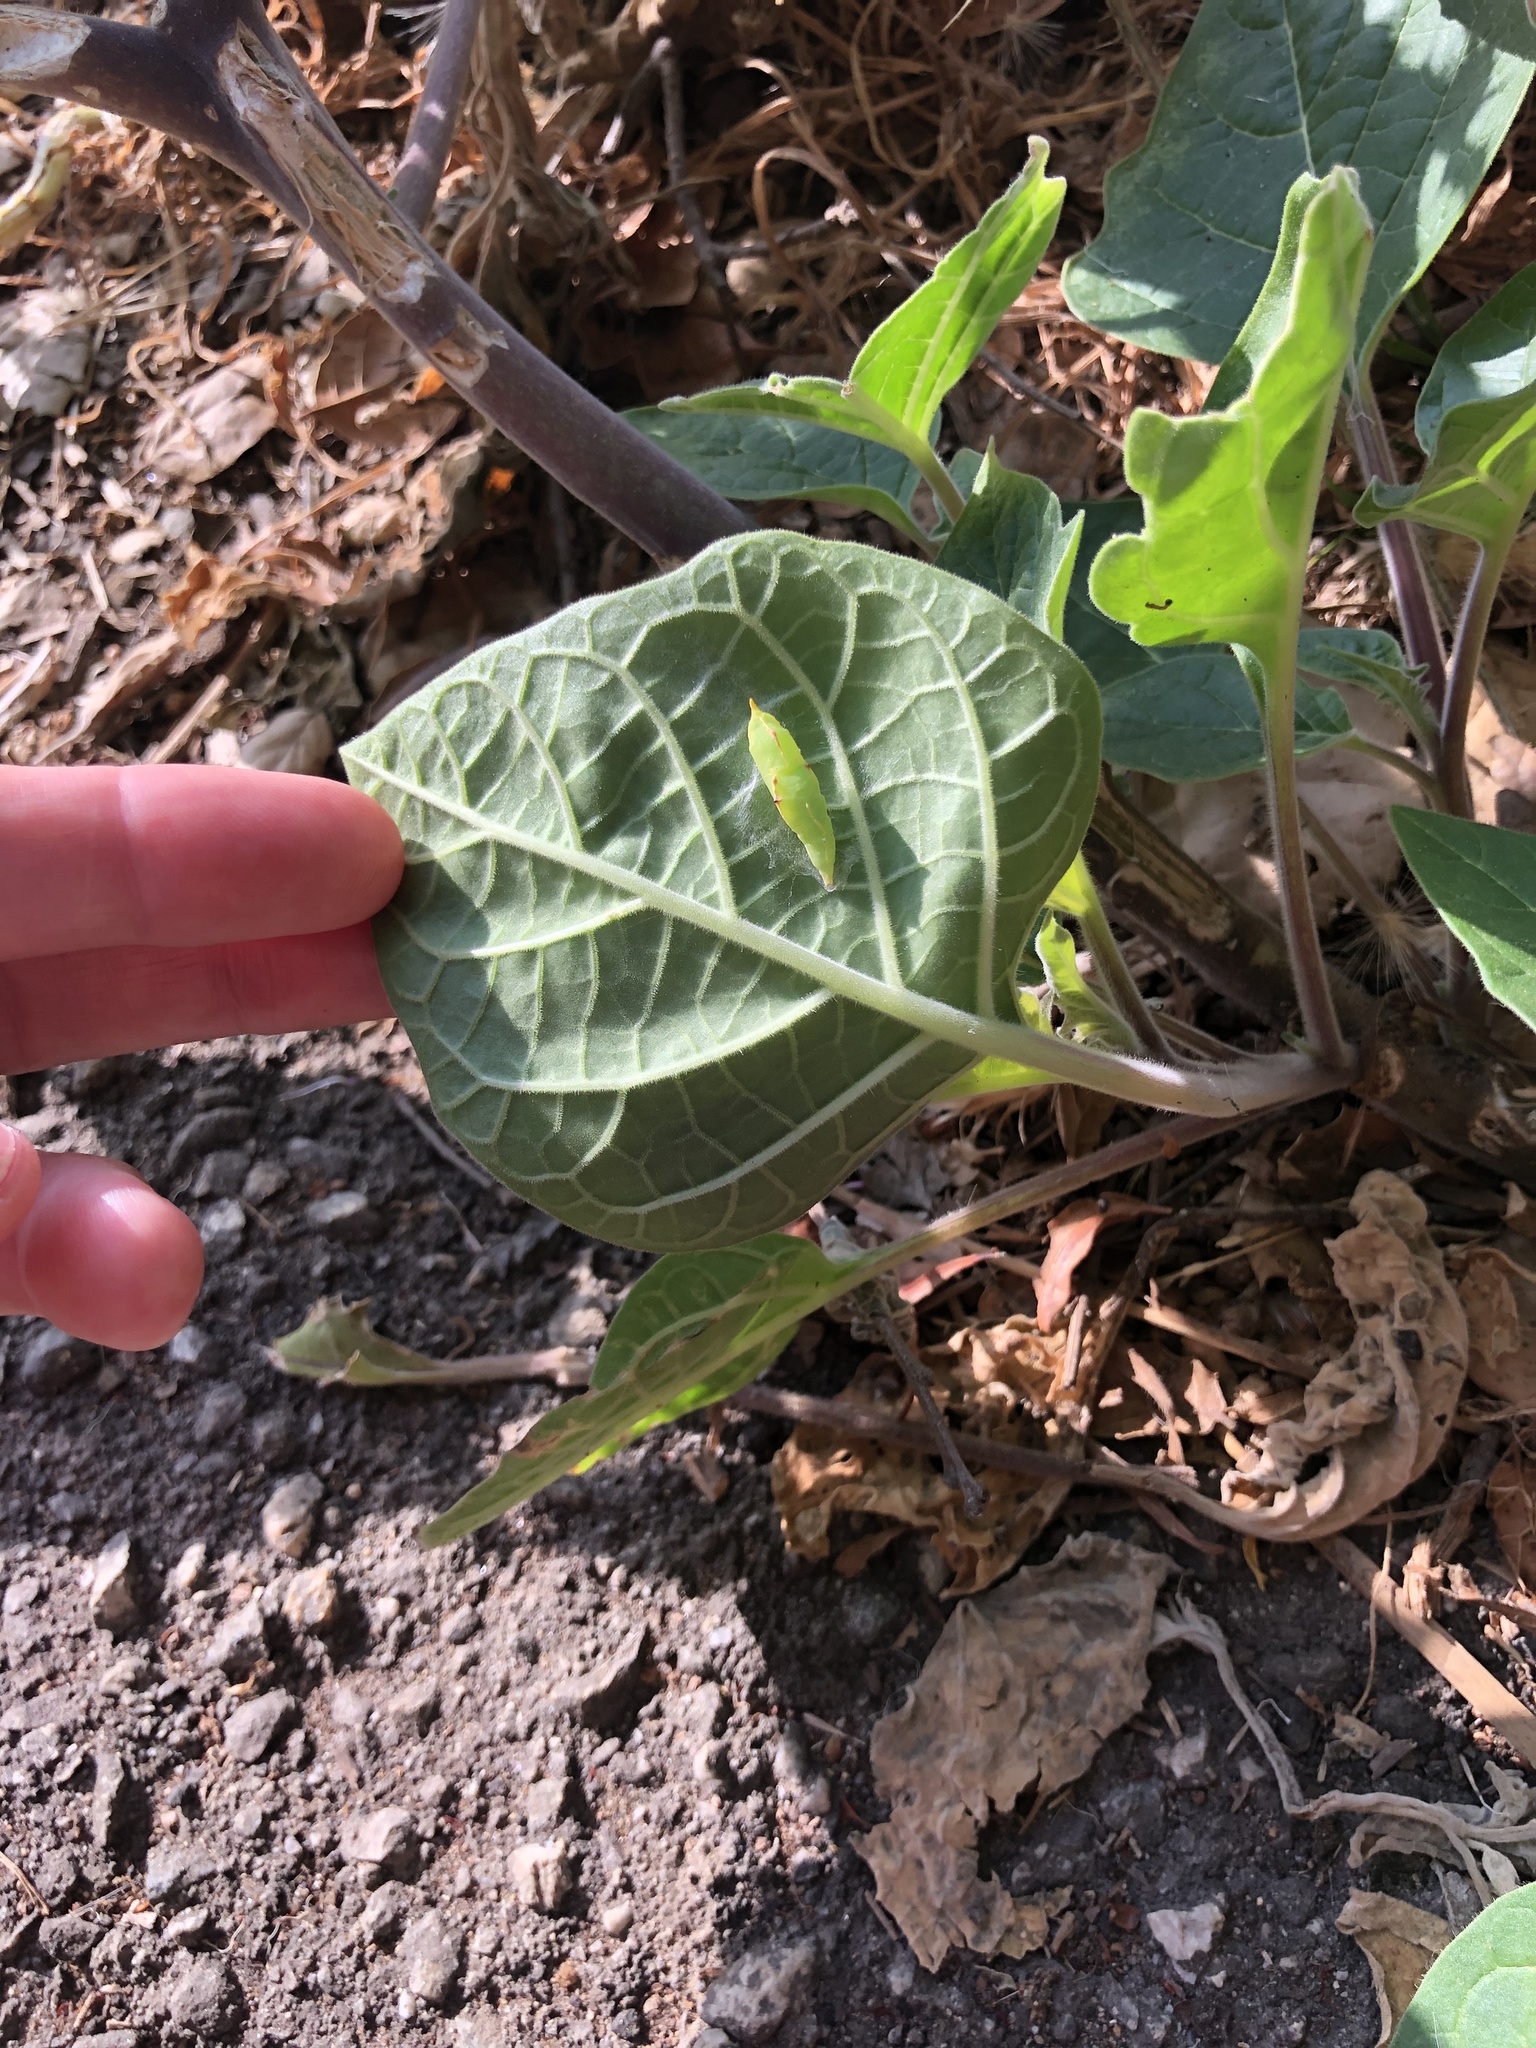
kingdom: Animalia
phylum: Arthropoda
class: Insecta
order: Lepidoptera
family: Pieridae
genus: Pieris
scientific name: Pieris rapae
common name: Small white
